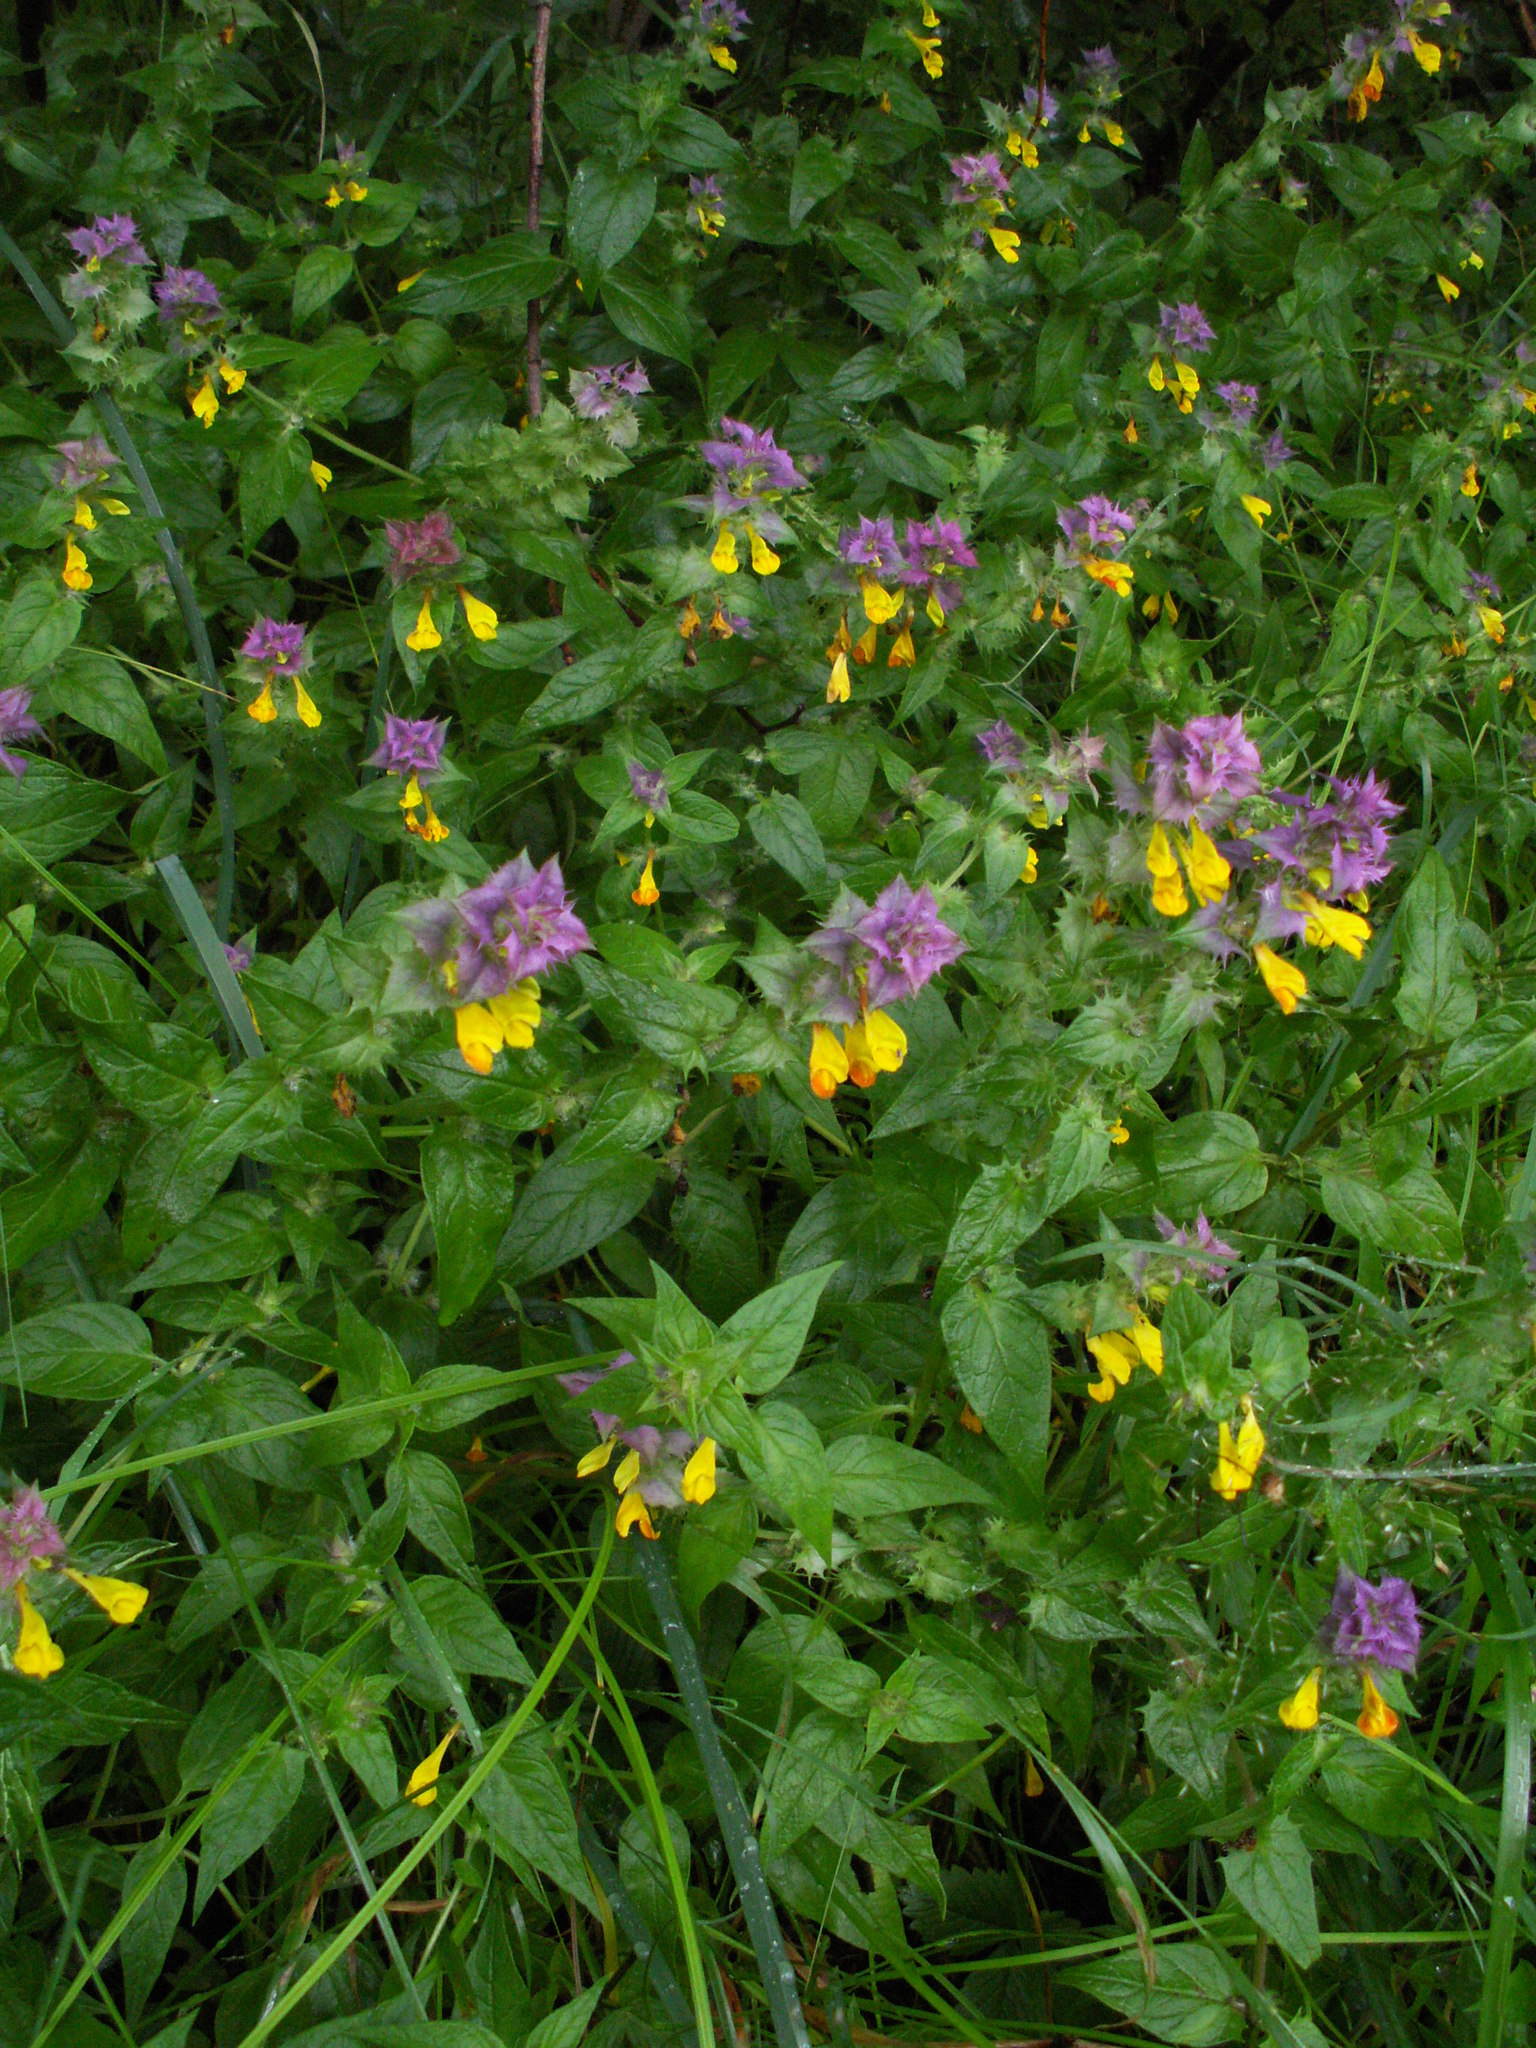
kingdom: Plantae
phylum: Tracheophyta
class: Magnoliopsida
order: Lamiales
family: Orobanchaceae
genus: Melampyrum
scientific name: Melampyrum nemorosum
